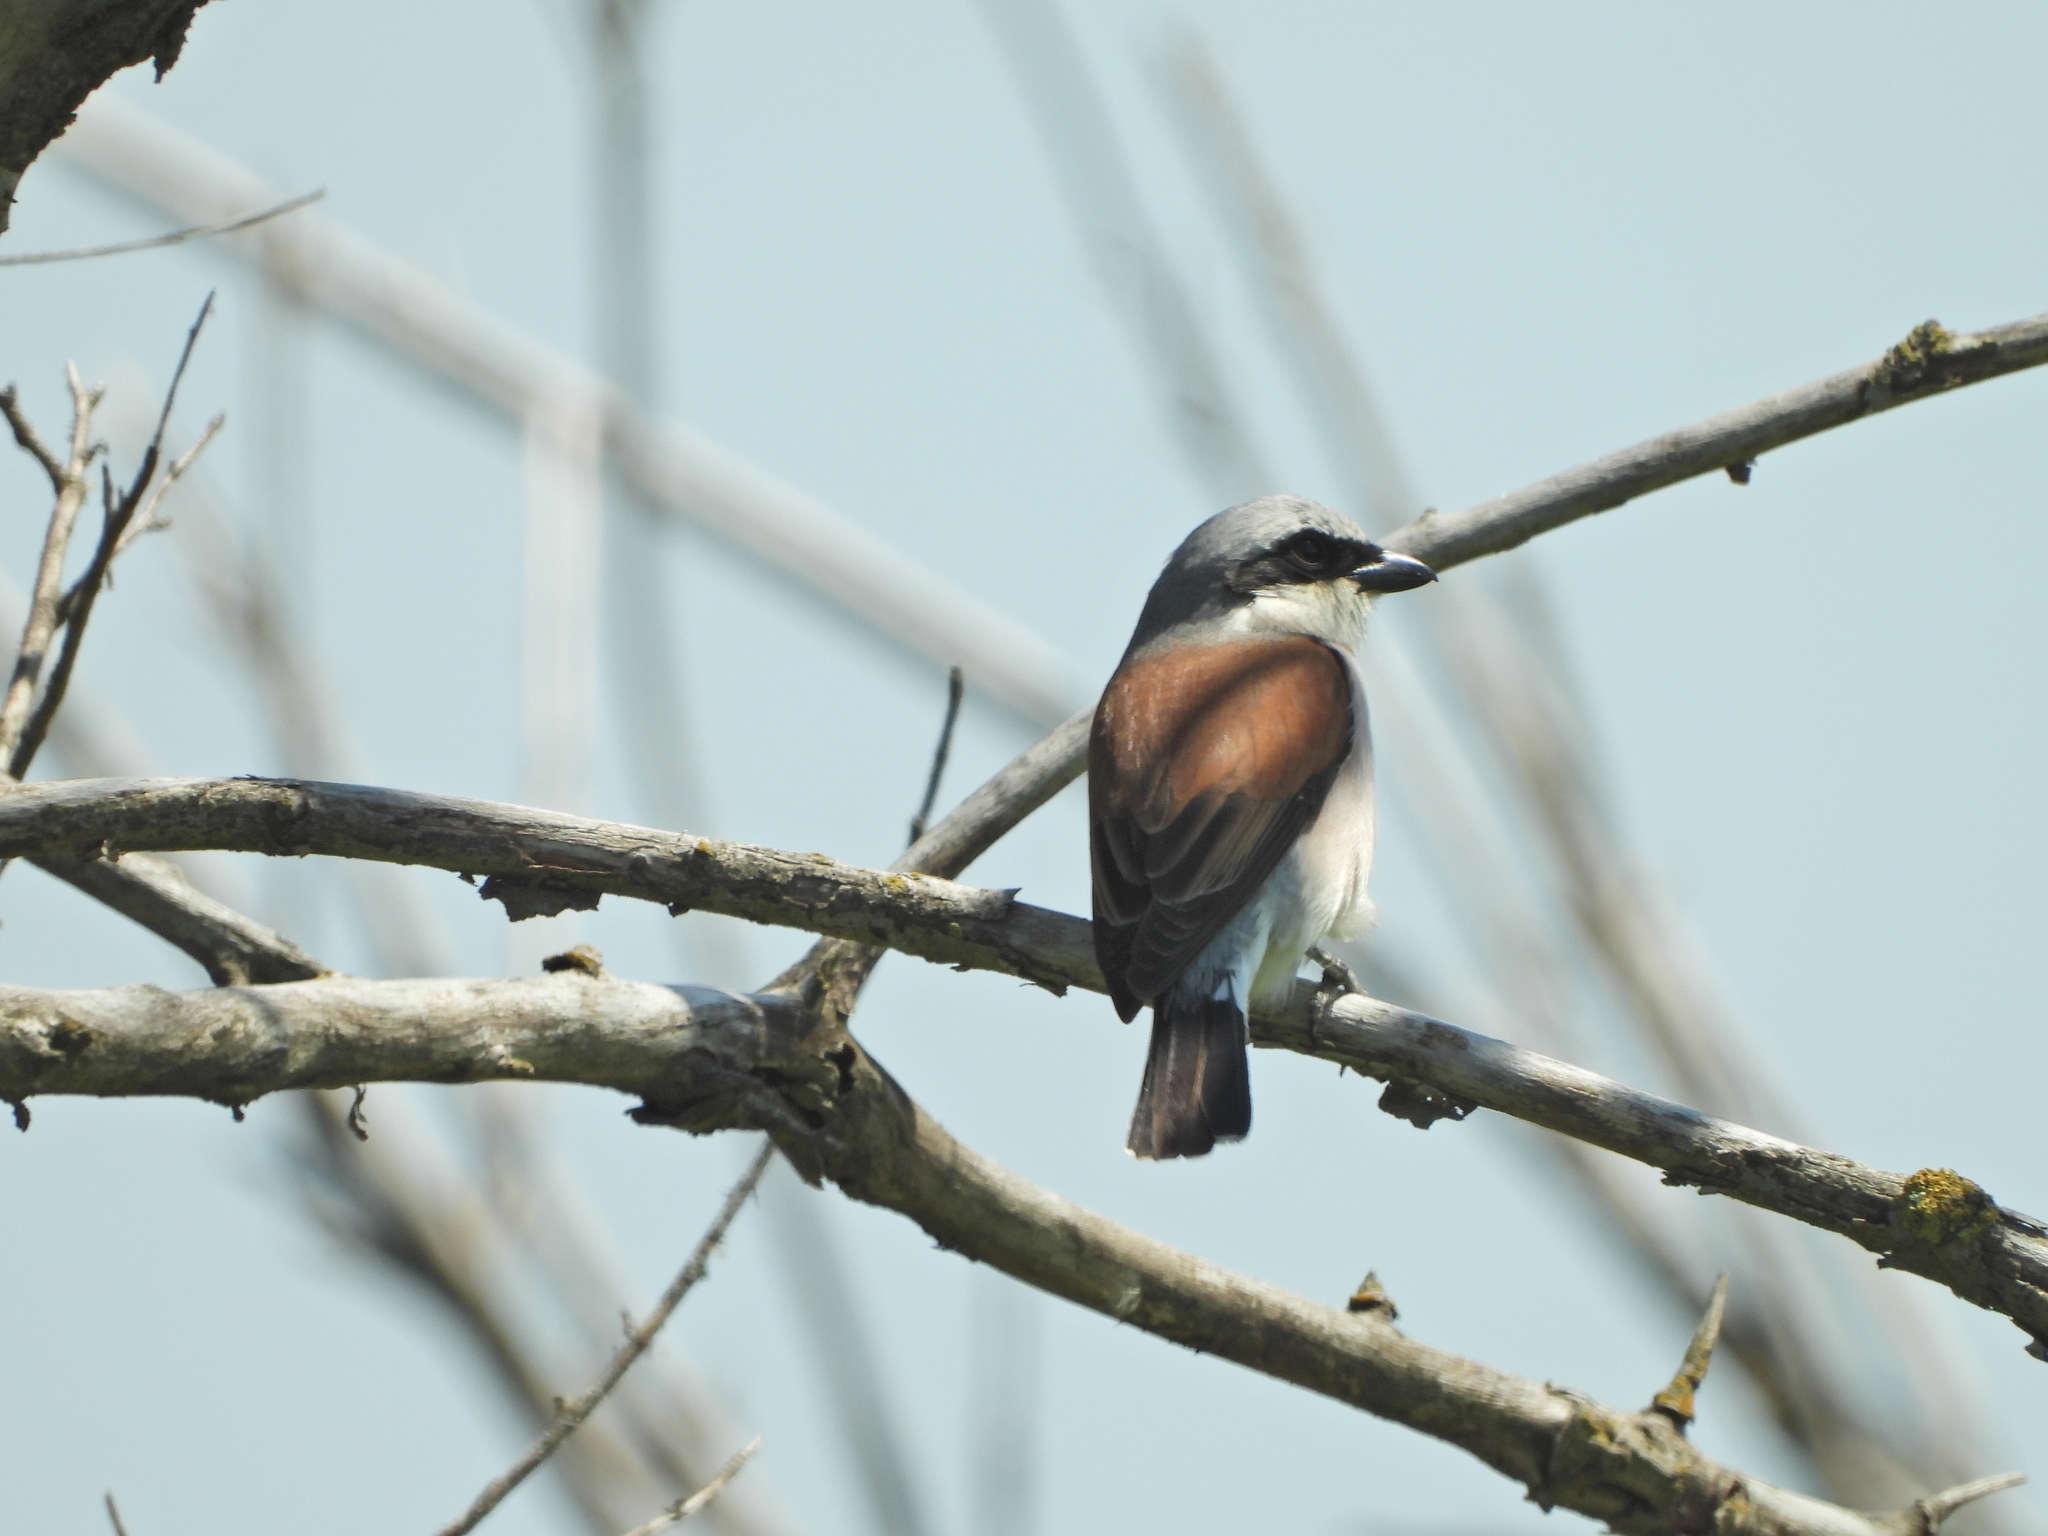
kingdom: Animalia
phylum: Chordata
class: Aves
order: Passeriformes
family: Laniidae
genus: Lanius
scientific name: Lanius collurio
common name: Red-backed shrike
